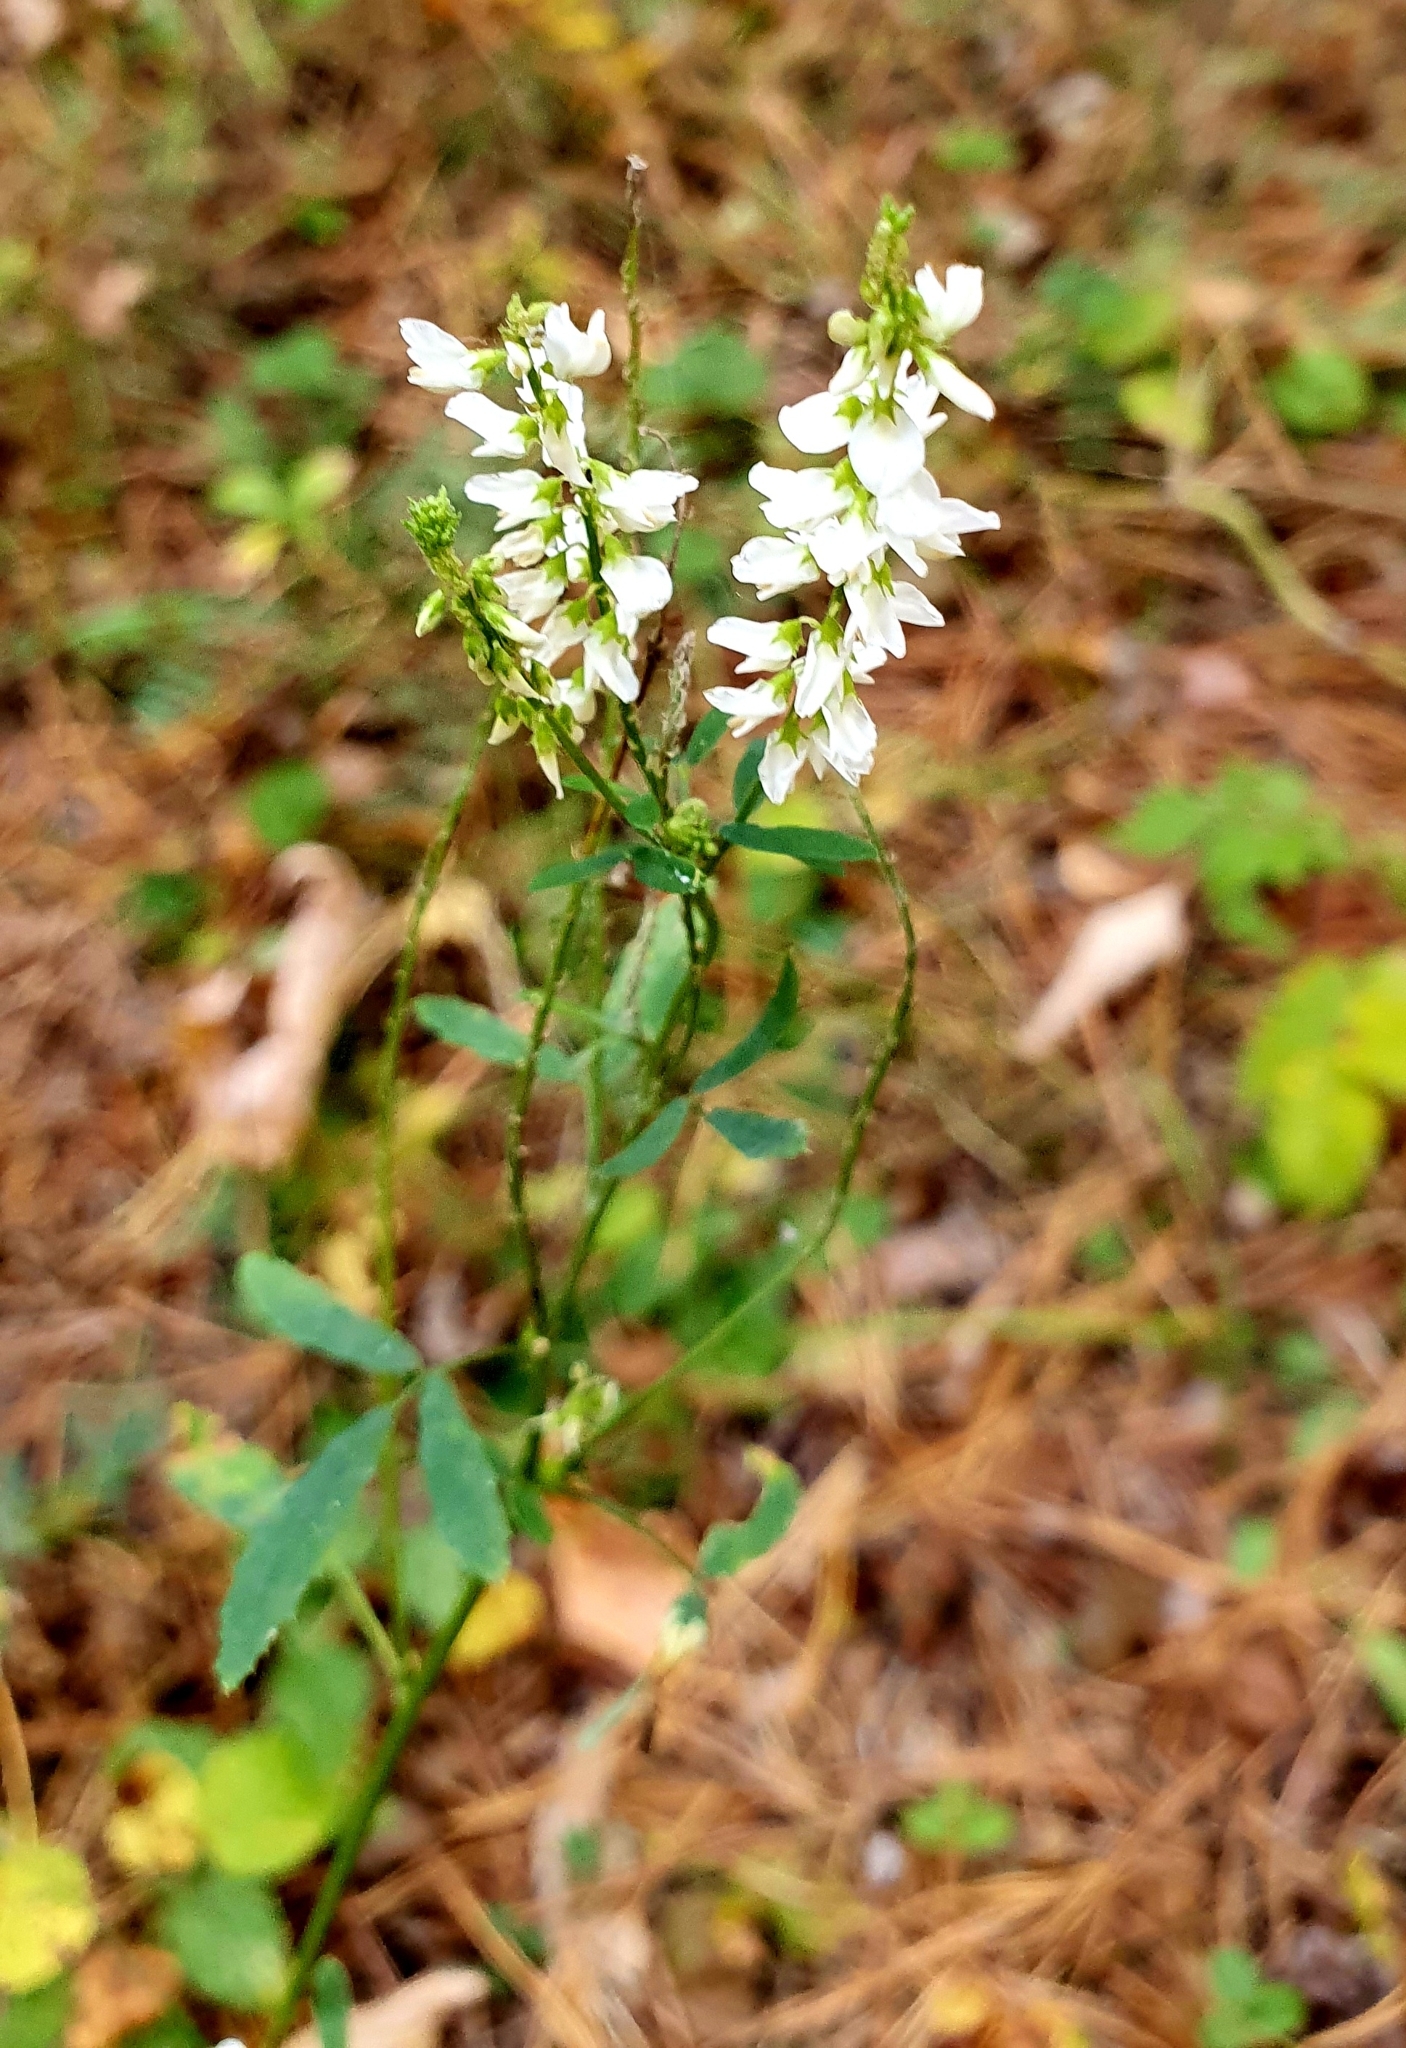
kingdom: Plantae
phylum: Tracheophyta
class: Magnoliopsida
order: Fabales
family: Fabaceae
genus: Melilotus
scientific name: Melilotus albus
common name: White melilot
